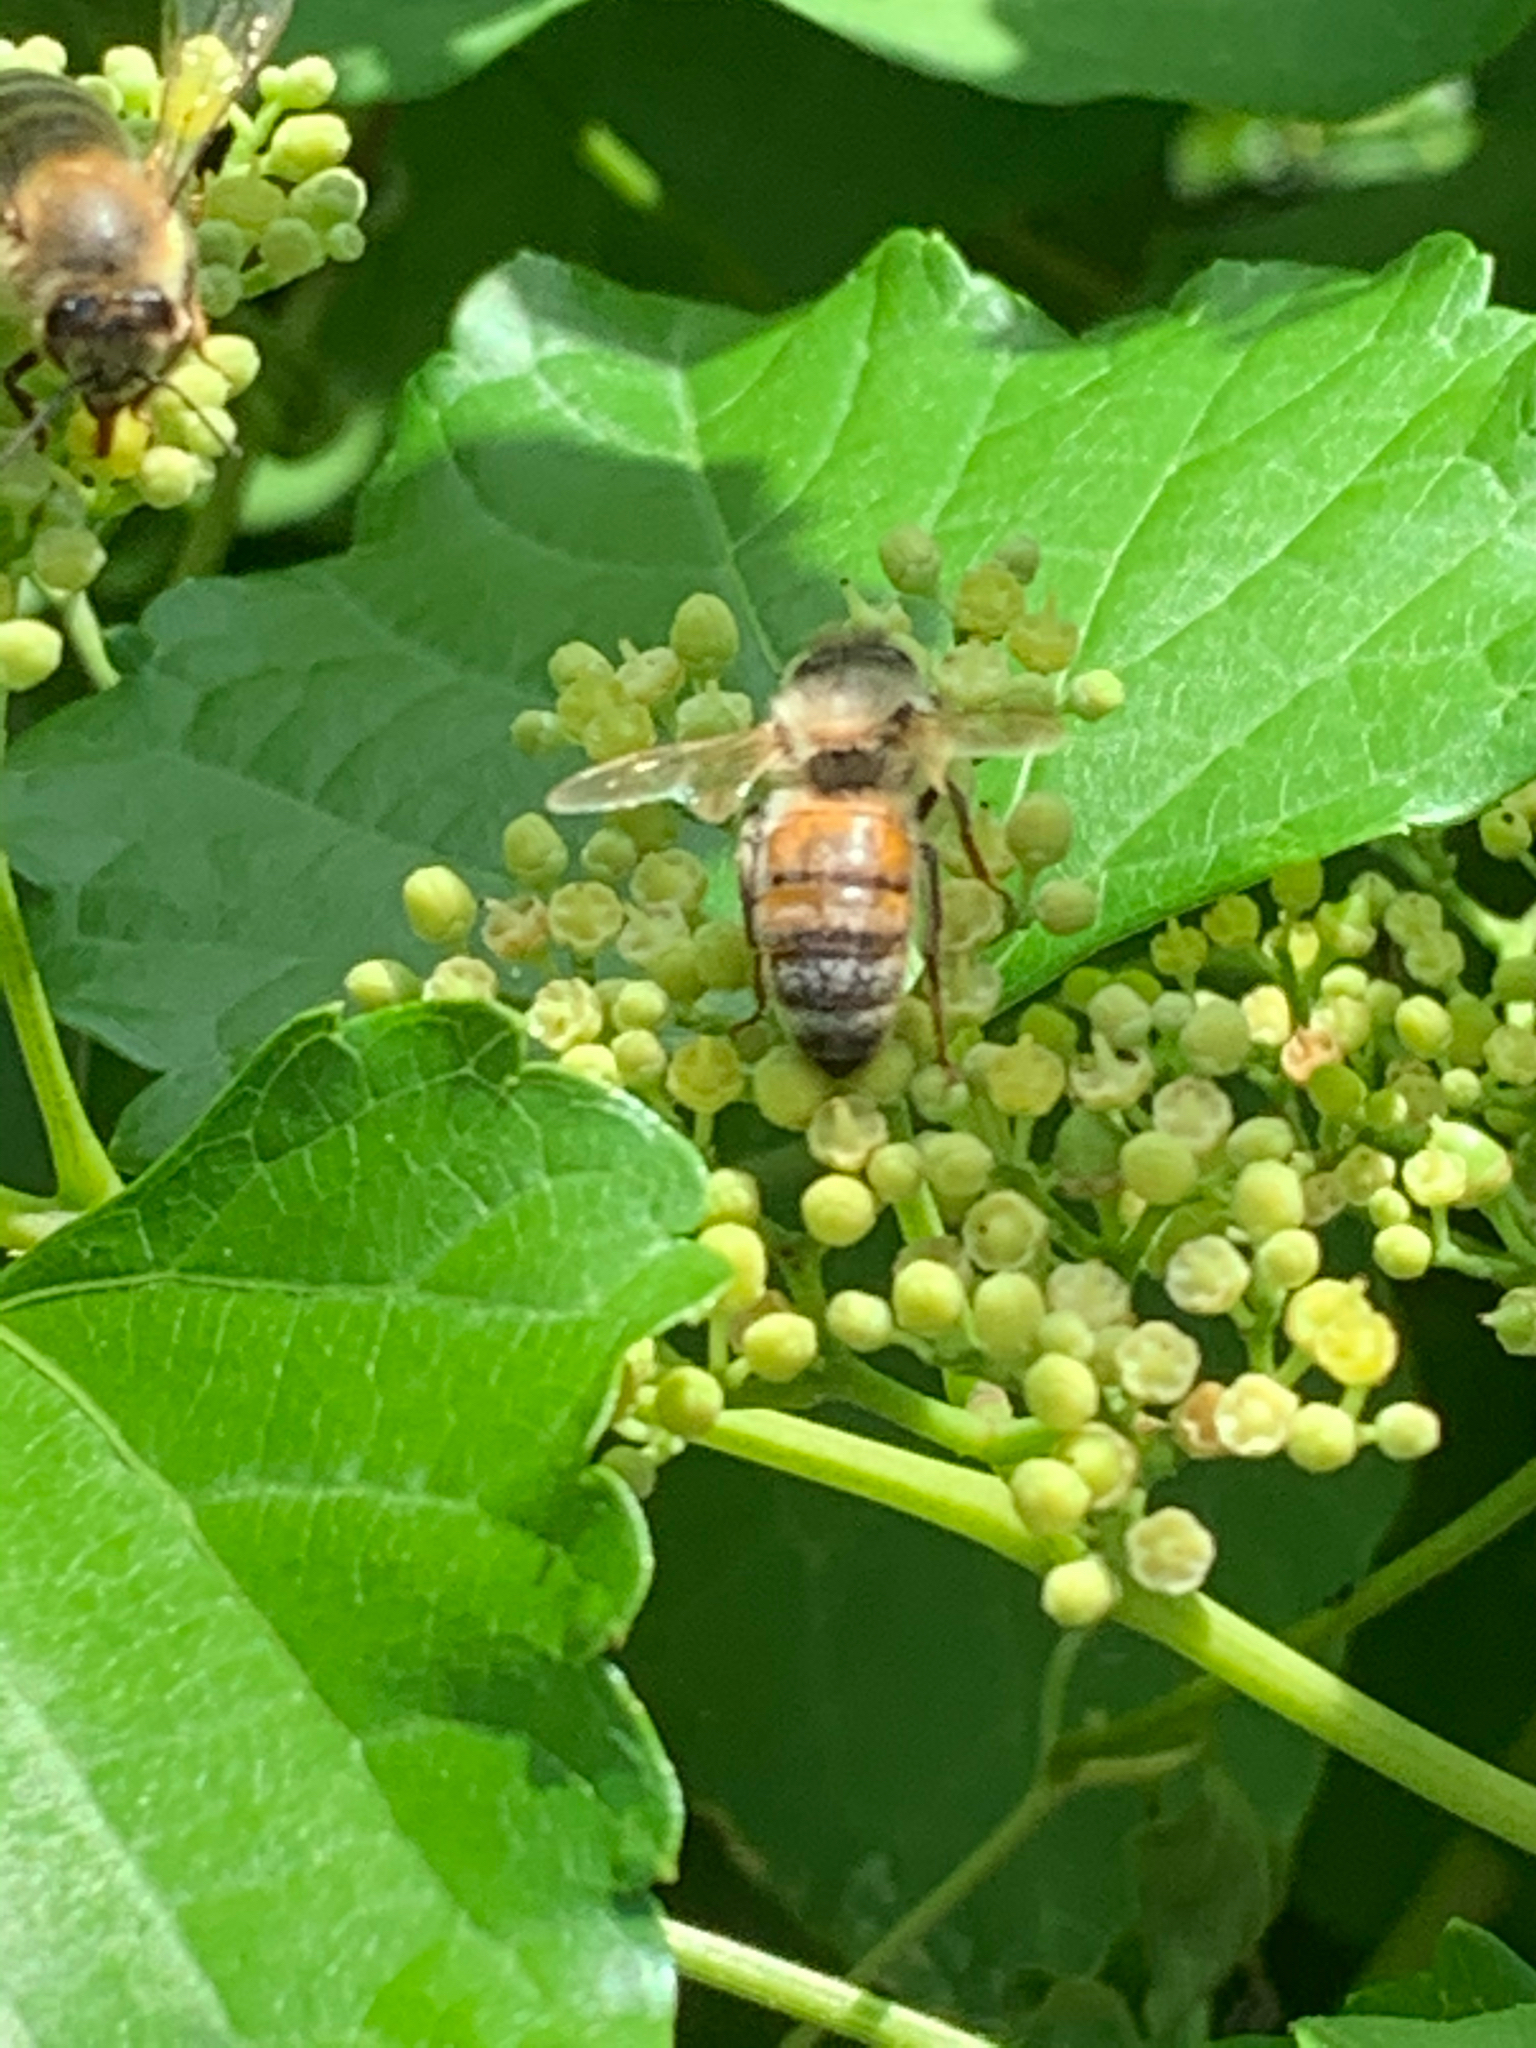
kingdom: Animalia
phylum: Arthropoda
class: Insecta
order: Hymenoptera
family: Apidae
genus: Apis
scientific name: Apis mellifera
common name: Honey bee
